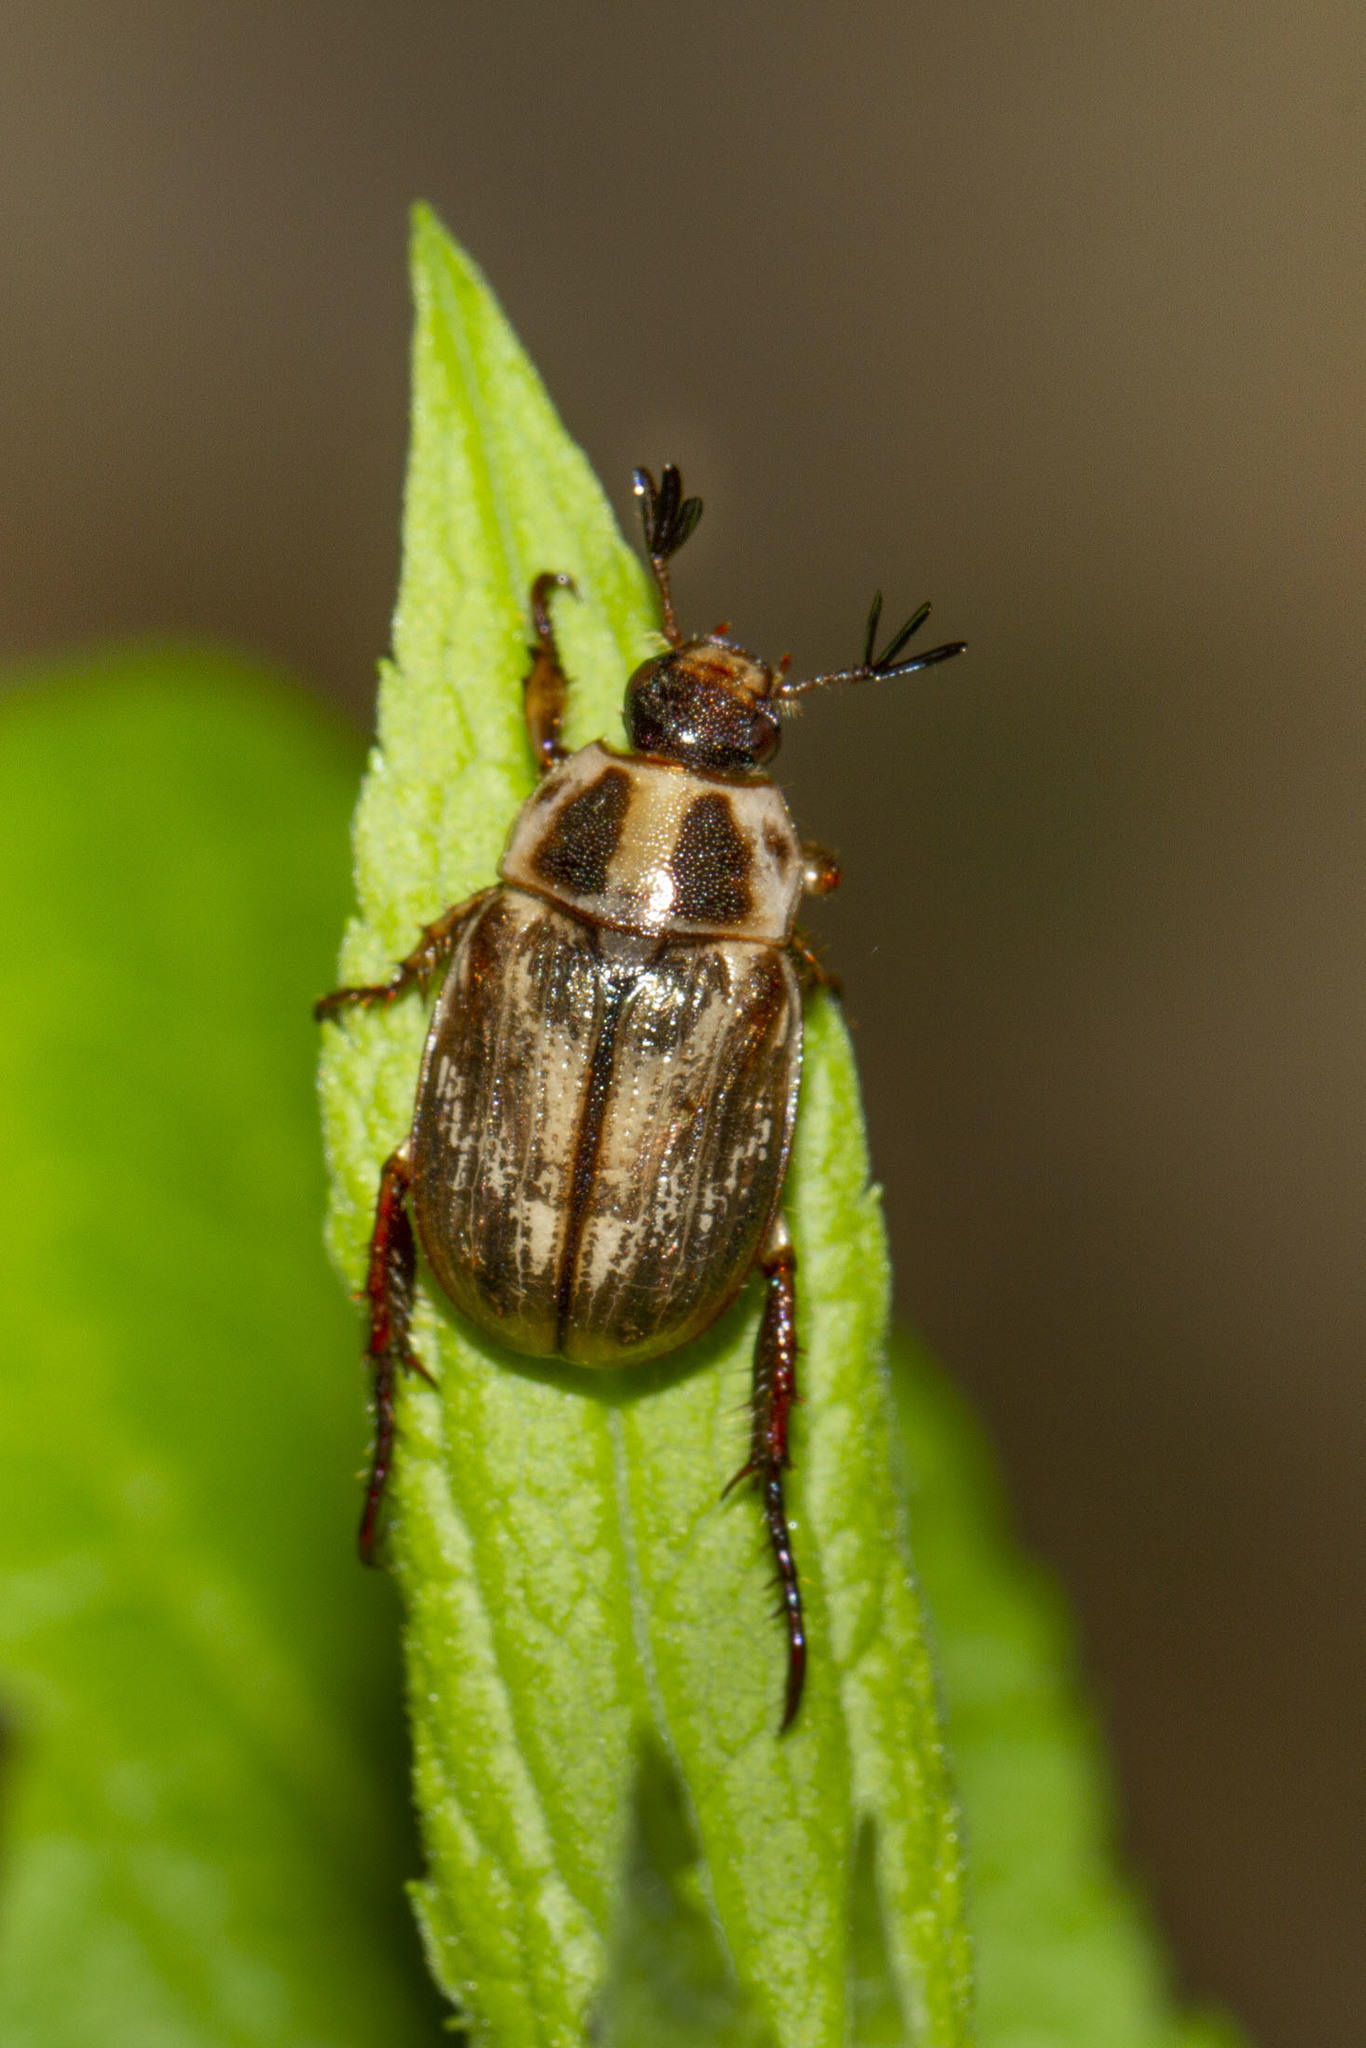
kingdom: Animalia
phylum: Arthropoda
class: Insecta
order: Coleoptera
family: Scarabaeidae
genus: Exomala
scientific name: Exomala orientalis
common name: Oriental beetle
